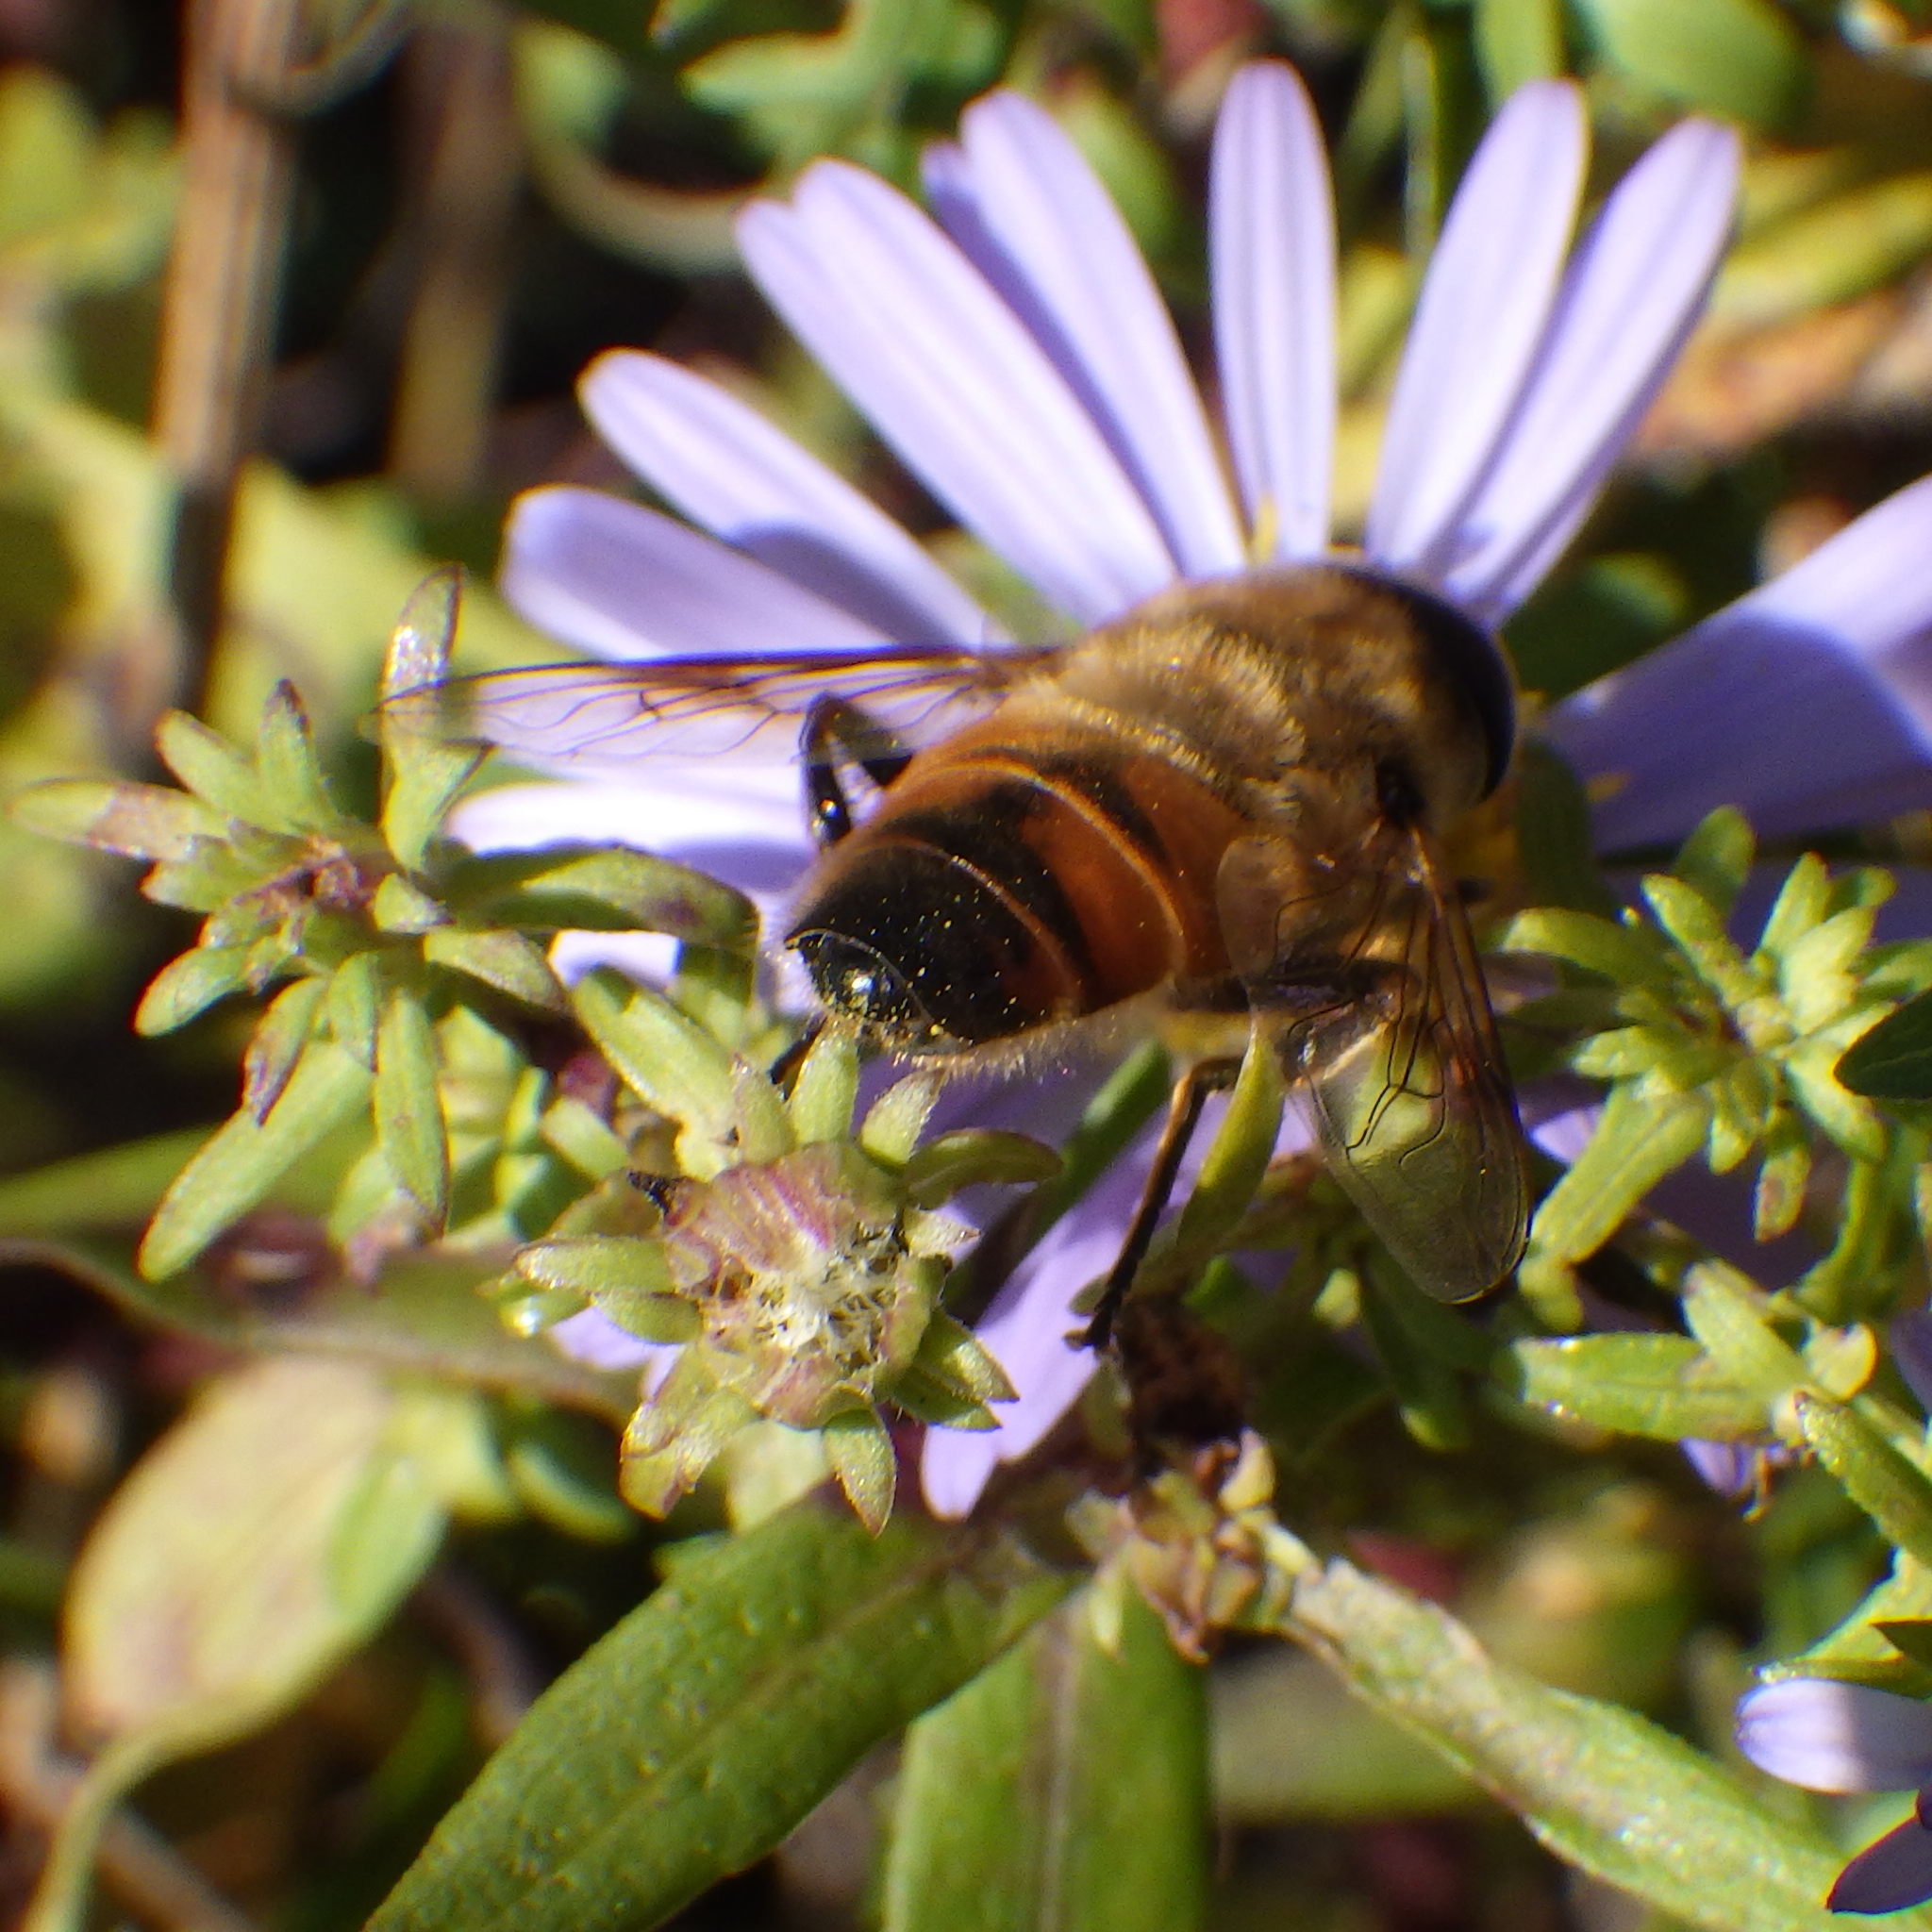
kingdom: Animalia
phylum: Arthropoda
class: Insecta
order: Diptera
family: Syrphidae
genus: Eristalis
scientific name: Eristalis tenax
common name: Drone fly
